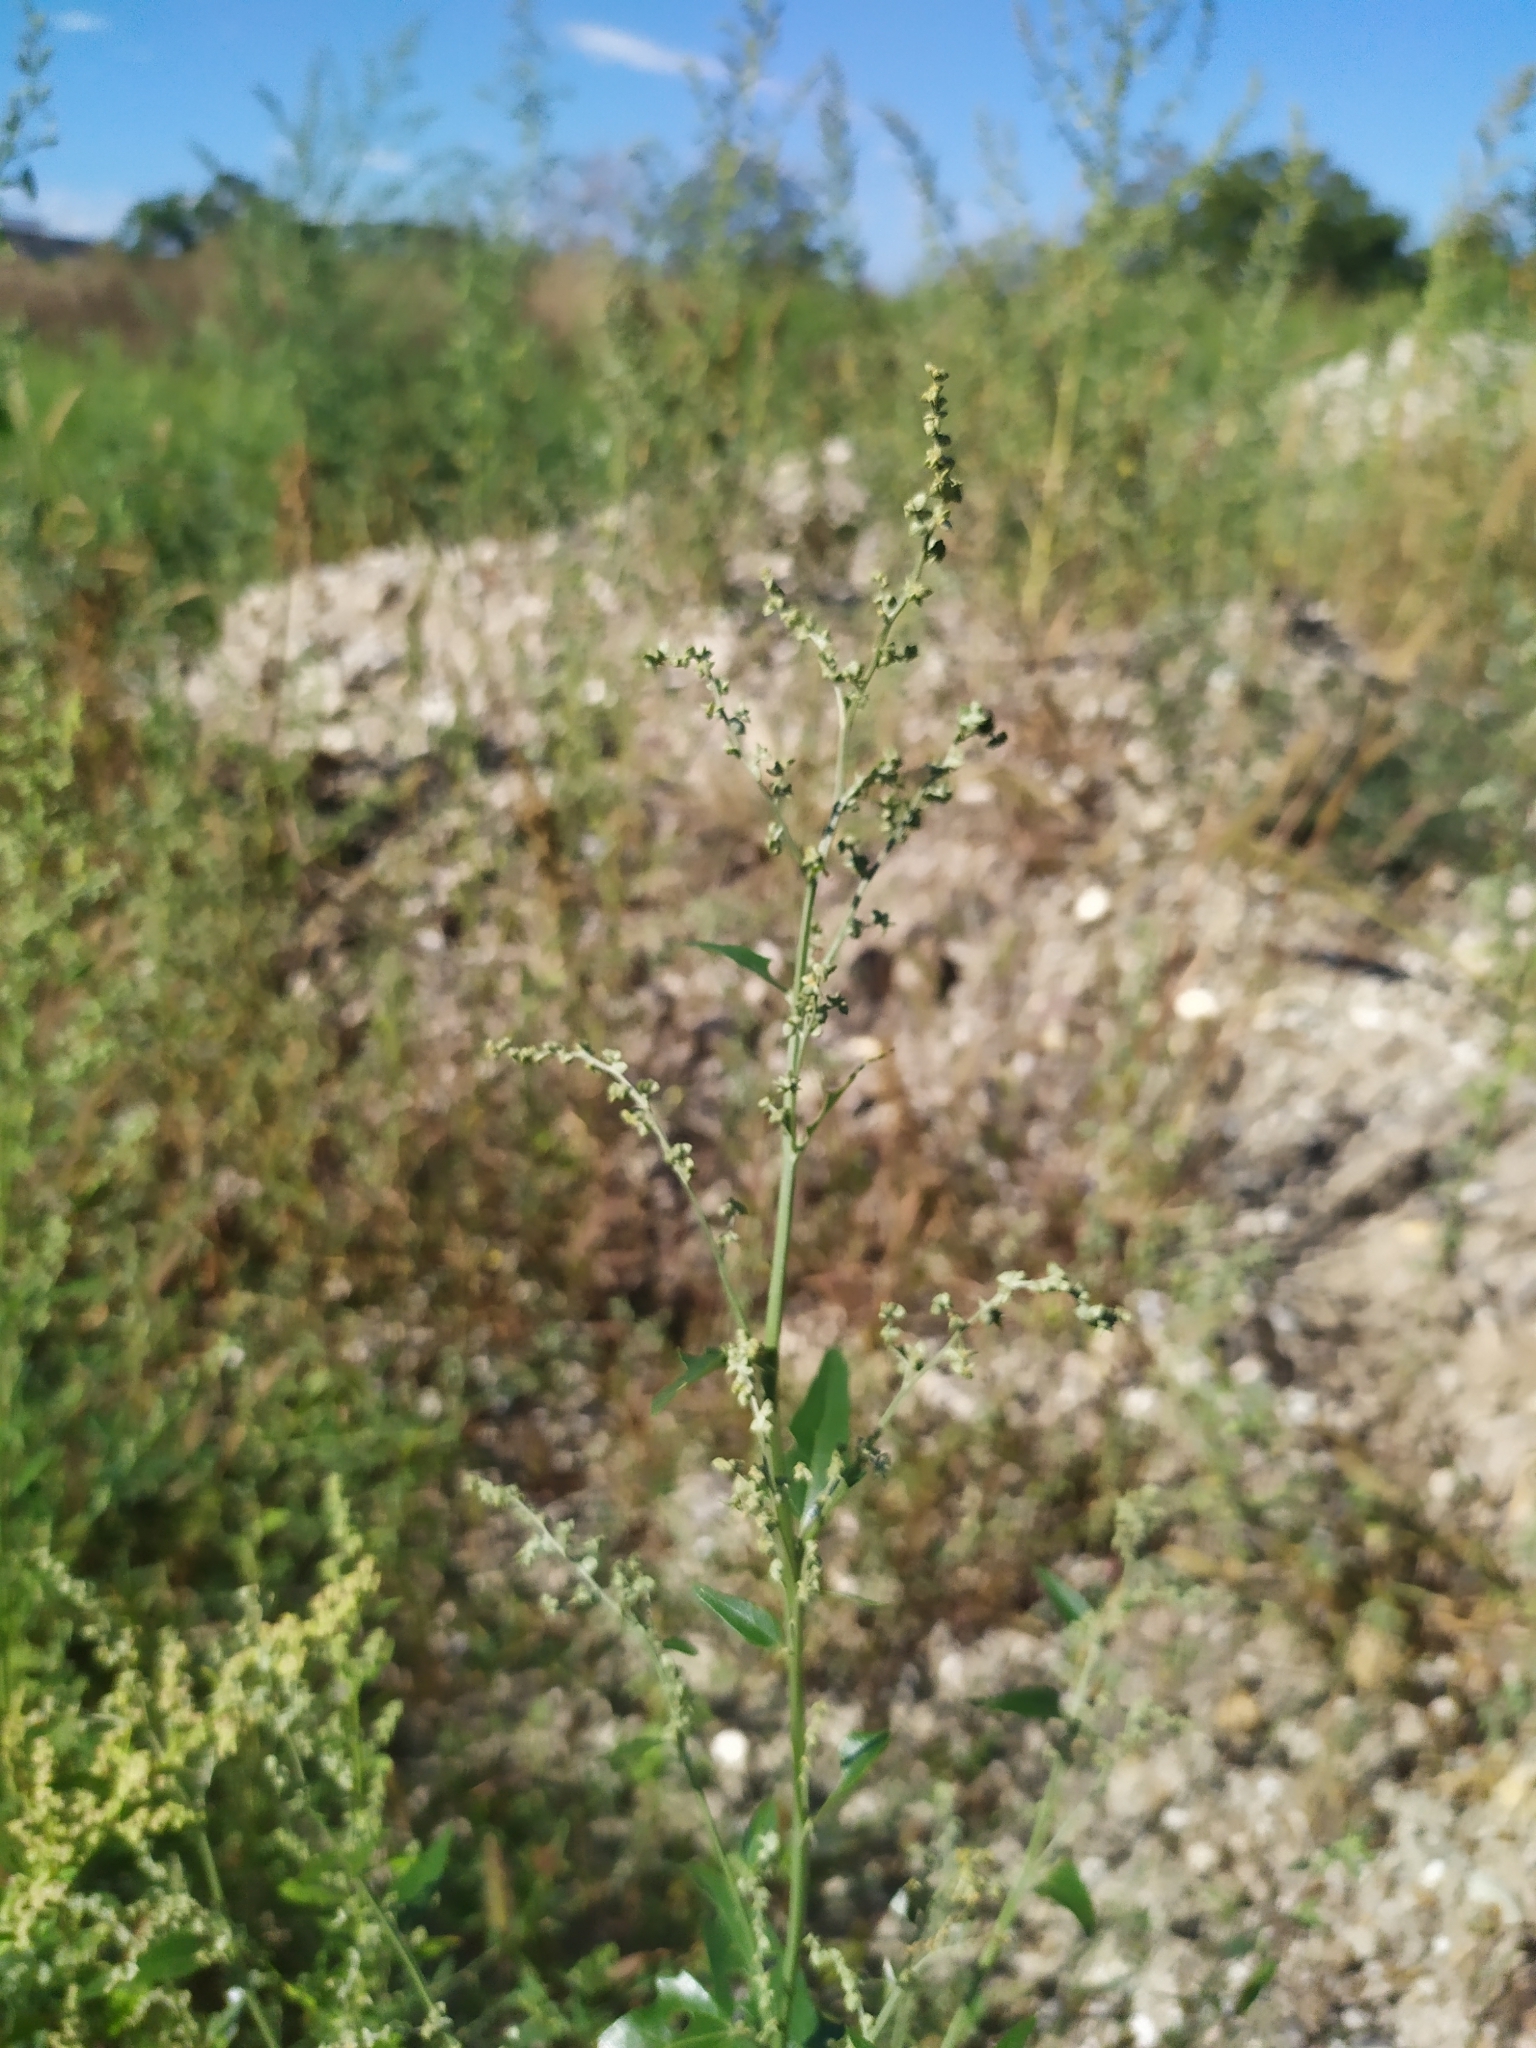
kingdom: Plantae
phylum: Tracheophyta
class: Magnoliopsida
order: Caryophyllales
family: Amaranthaceae
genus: Atriplex
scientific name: Atriplex sagittata
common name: Purple orache
